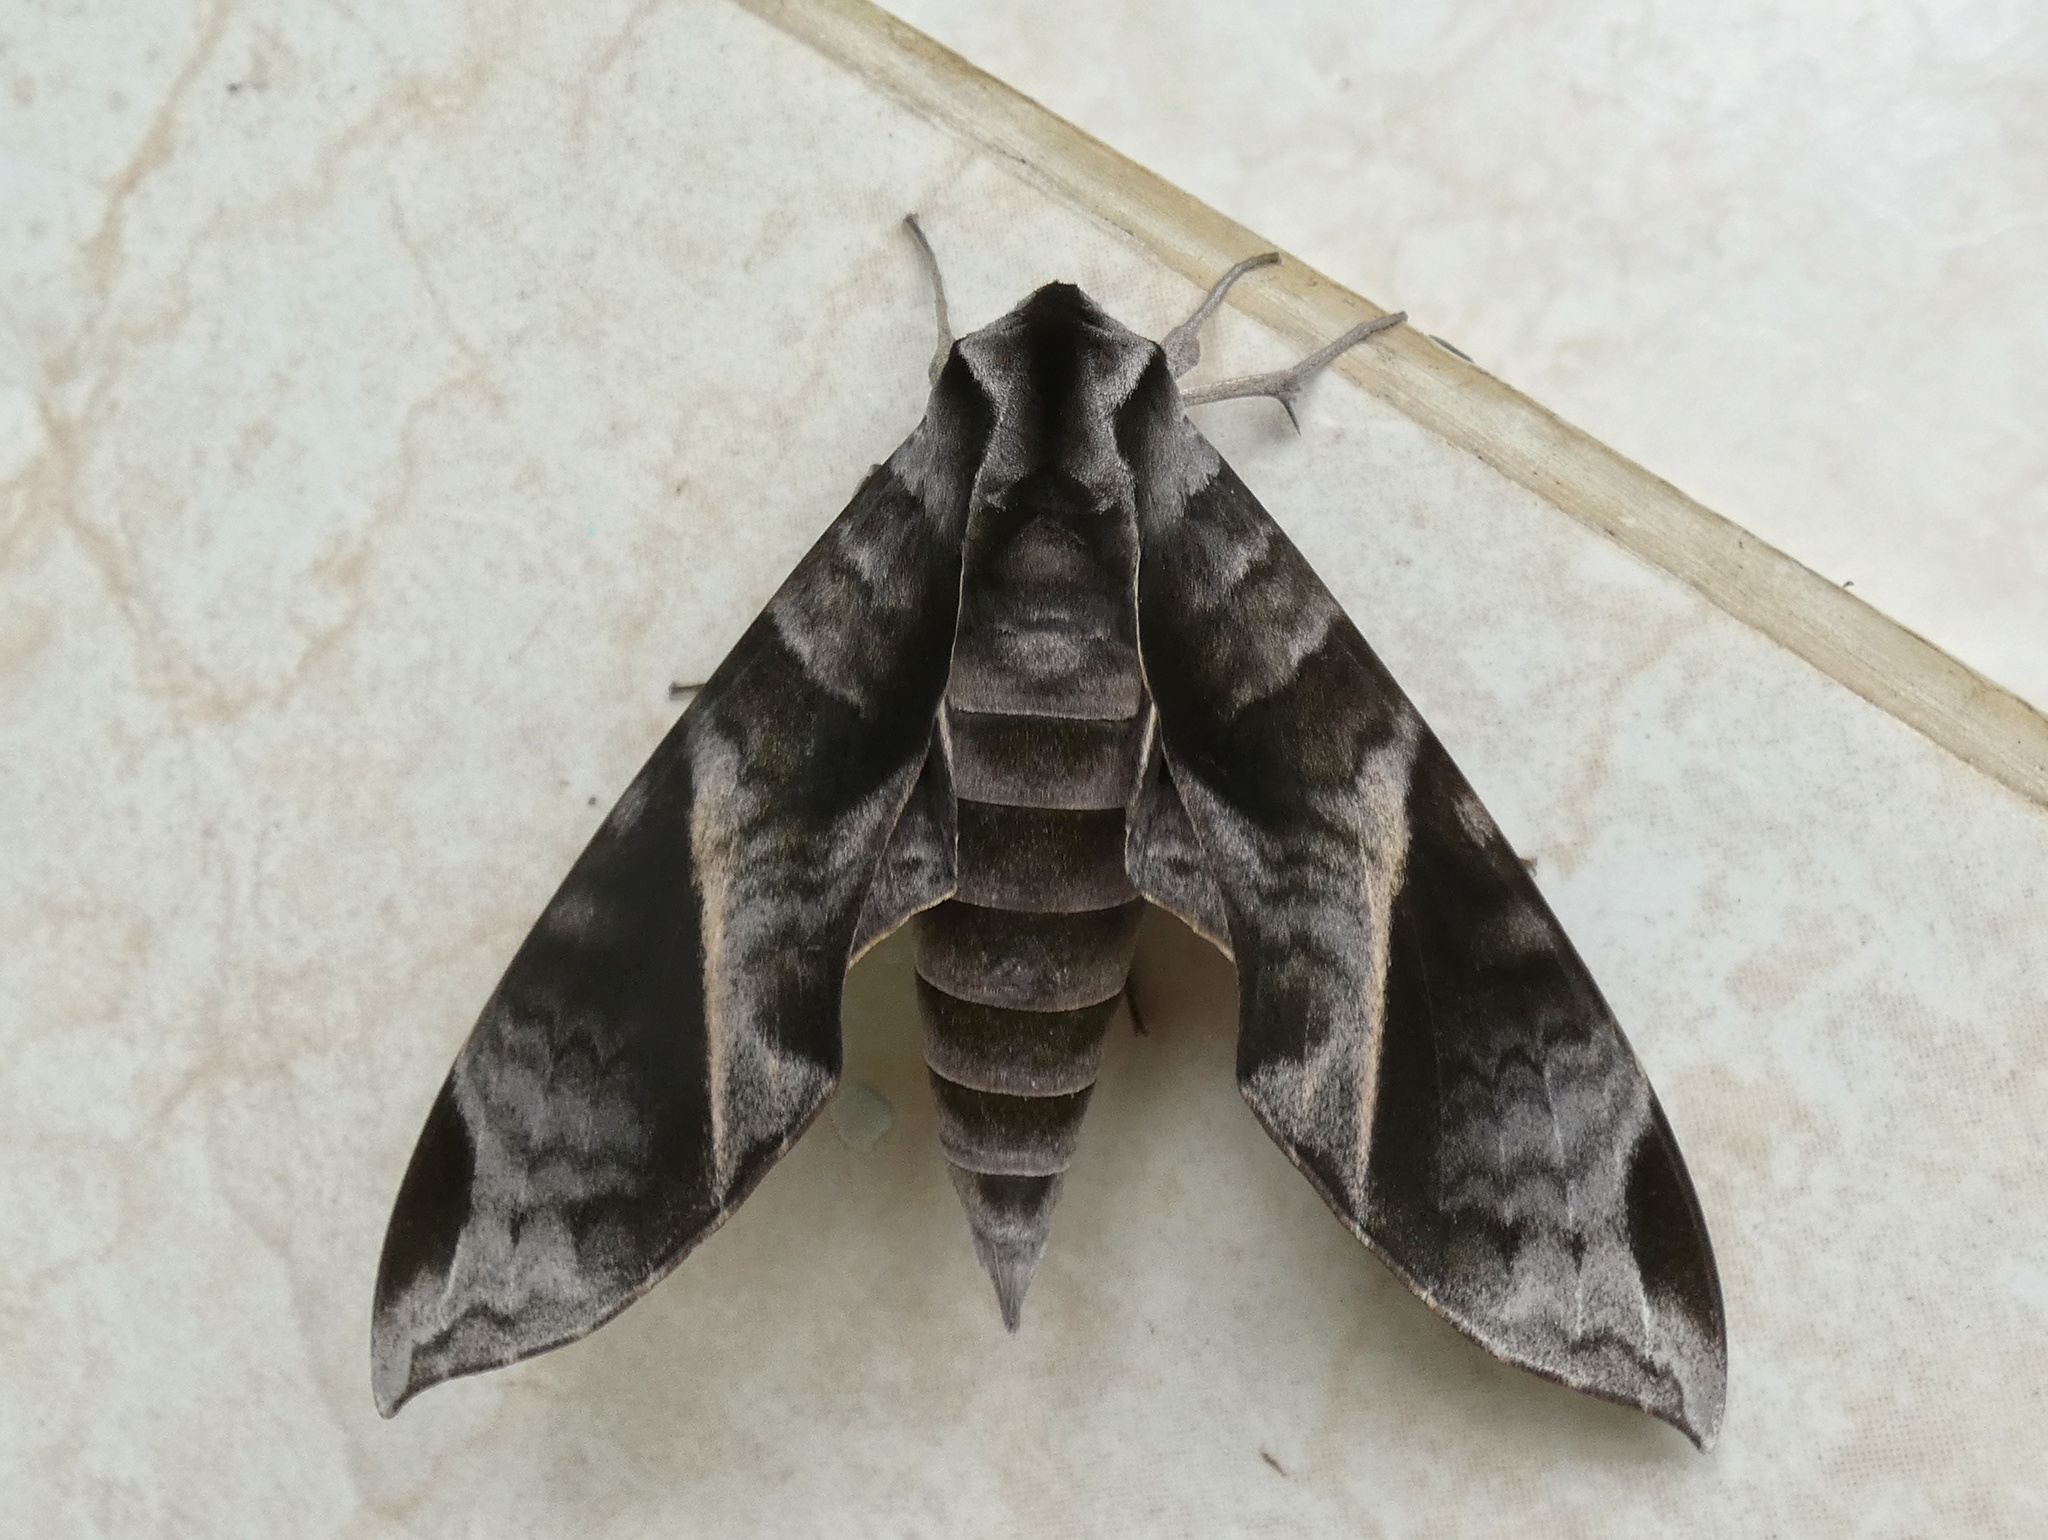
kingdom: Animalia
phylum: Arthropoda
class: Insecta
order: Lepidoptera
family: Sphingidae
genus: Eumorpha
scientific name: Eumorpha anchemolus
